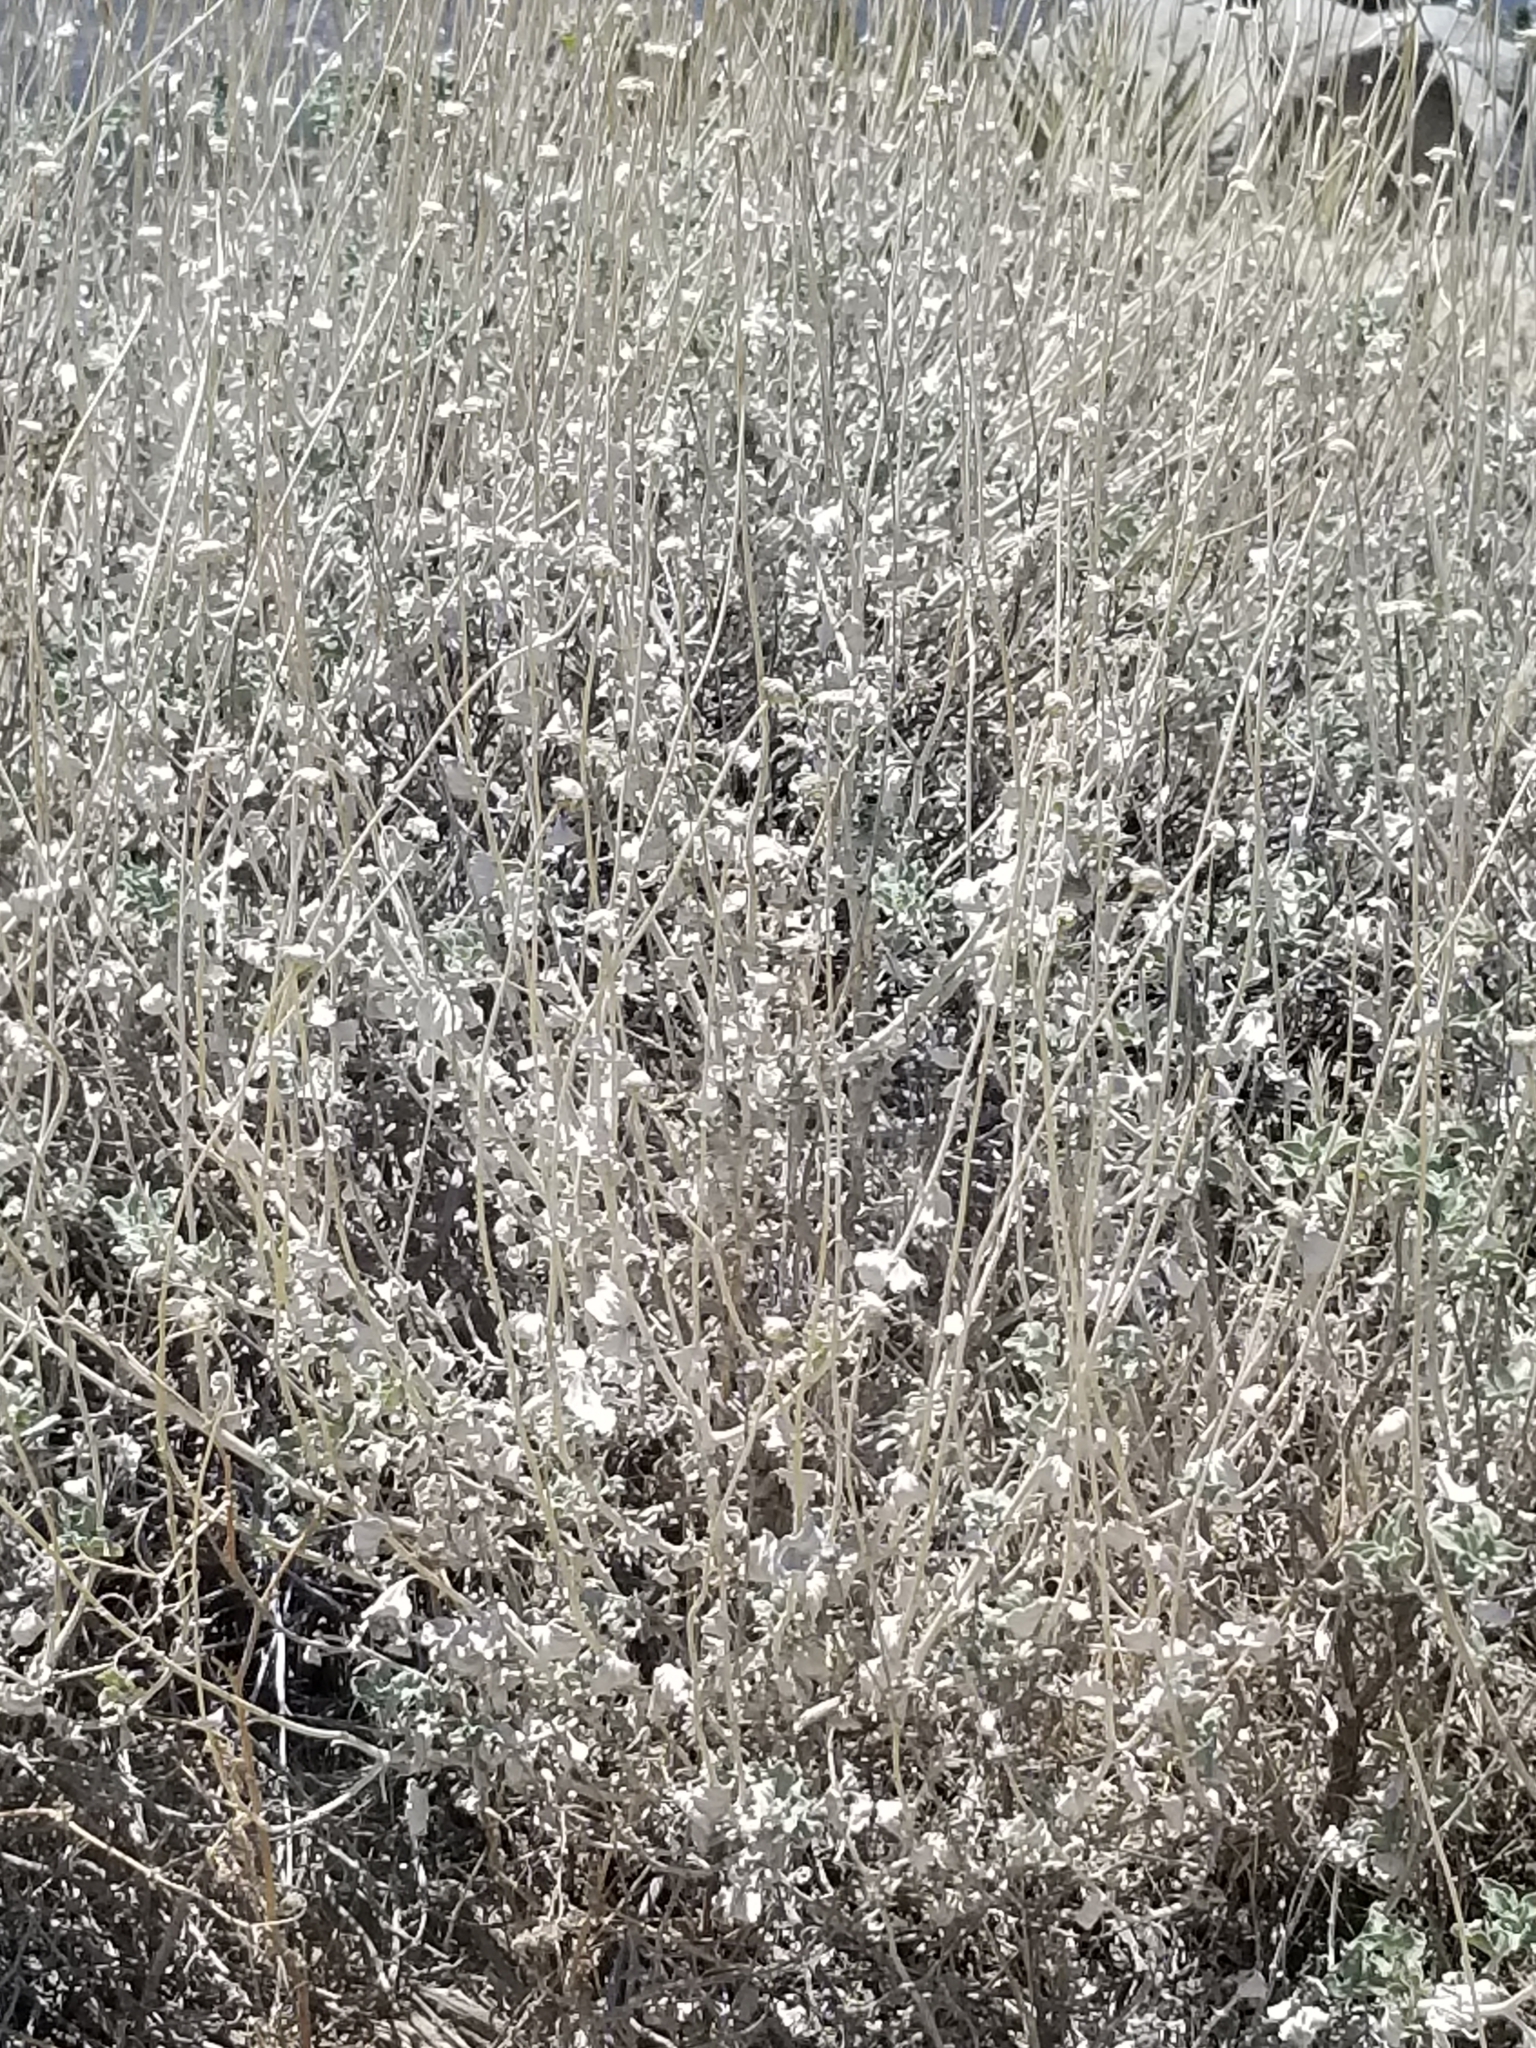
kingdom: Plantae
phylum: Tracheophyta
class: Magnoliopsida
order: Asterales
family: Asteraceae
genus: Encelia
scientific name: Encelia actoni
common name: Acton encelia
